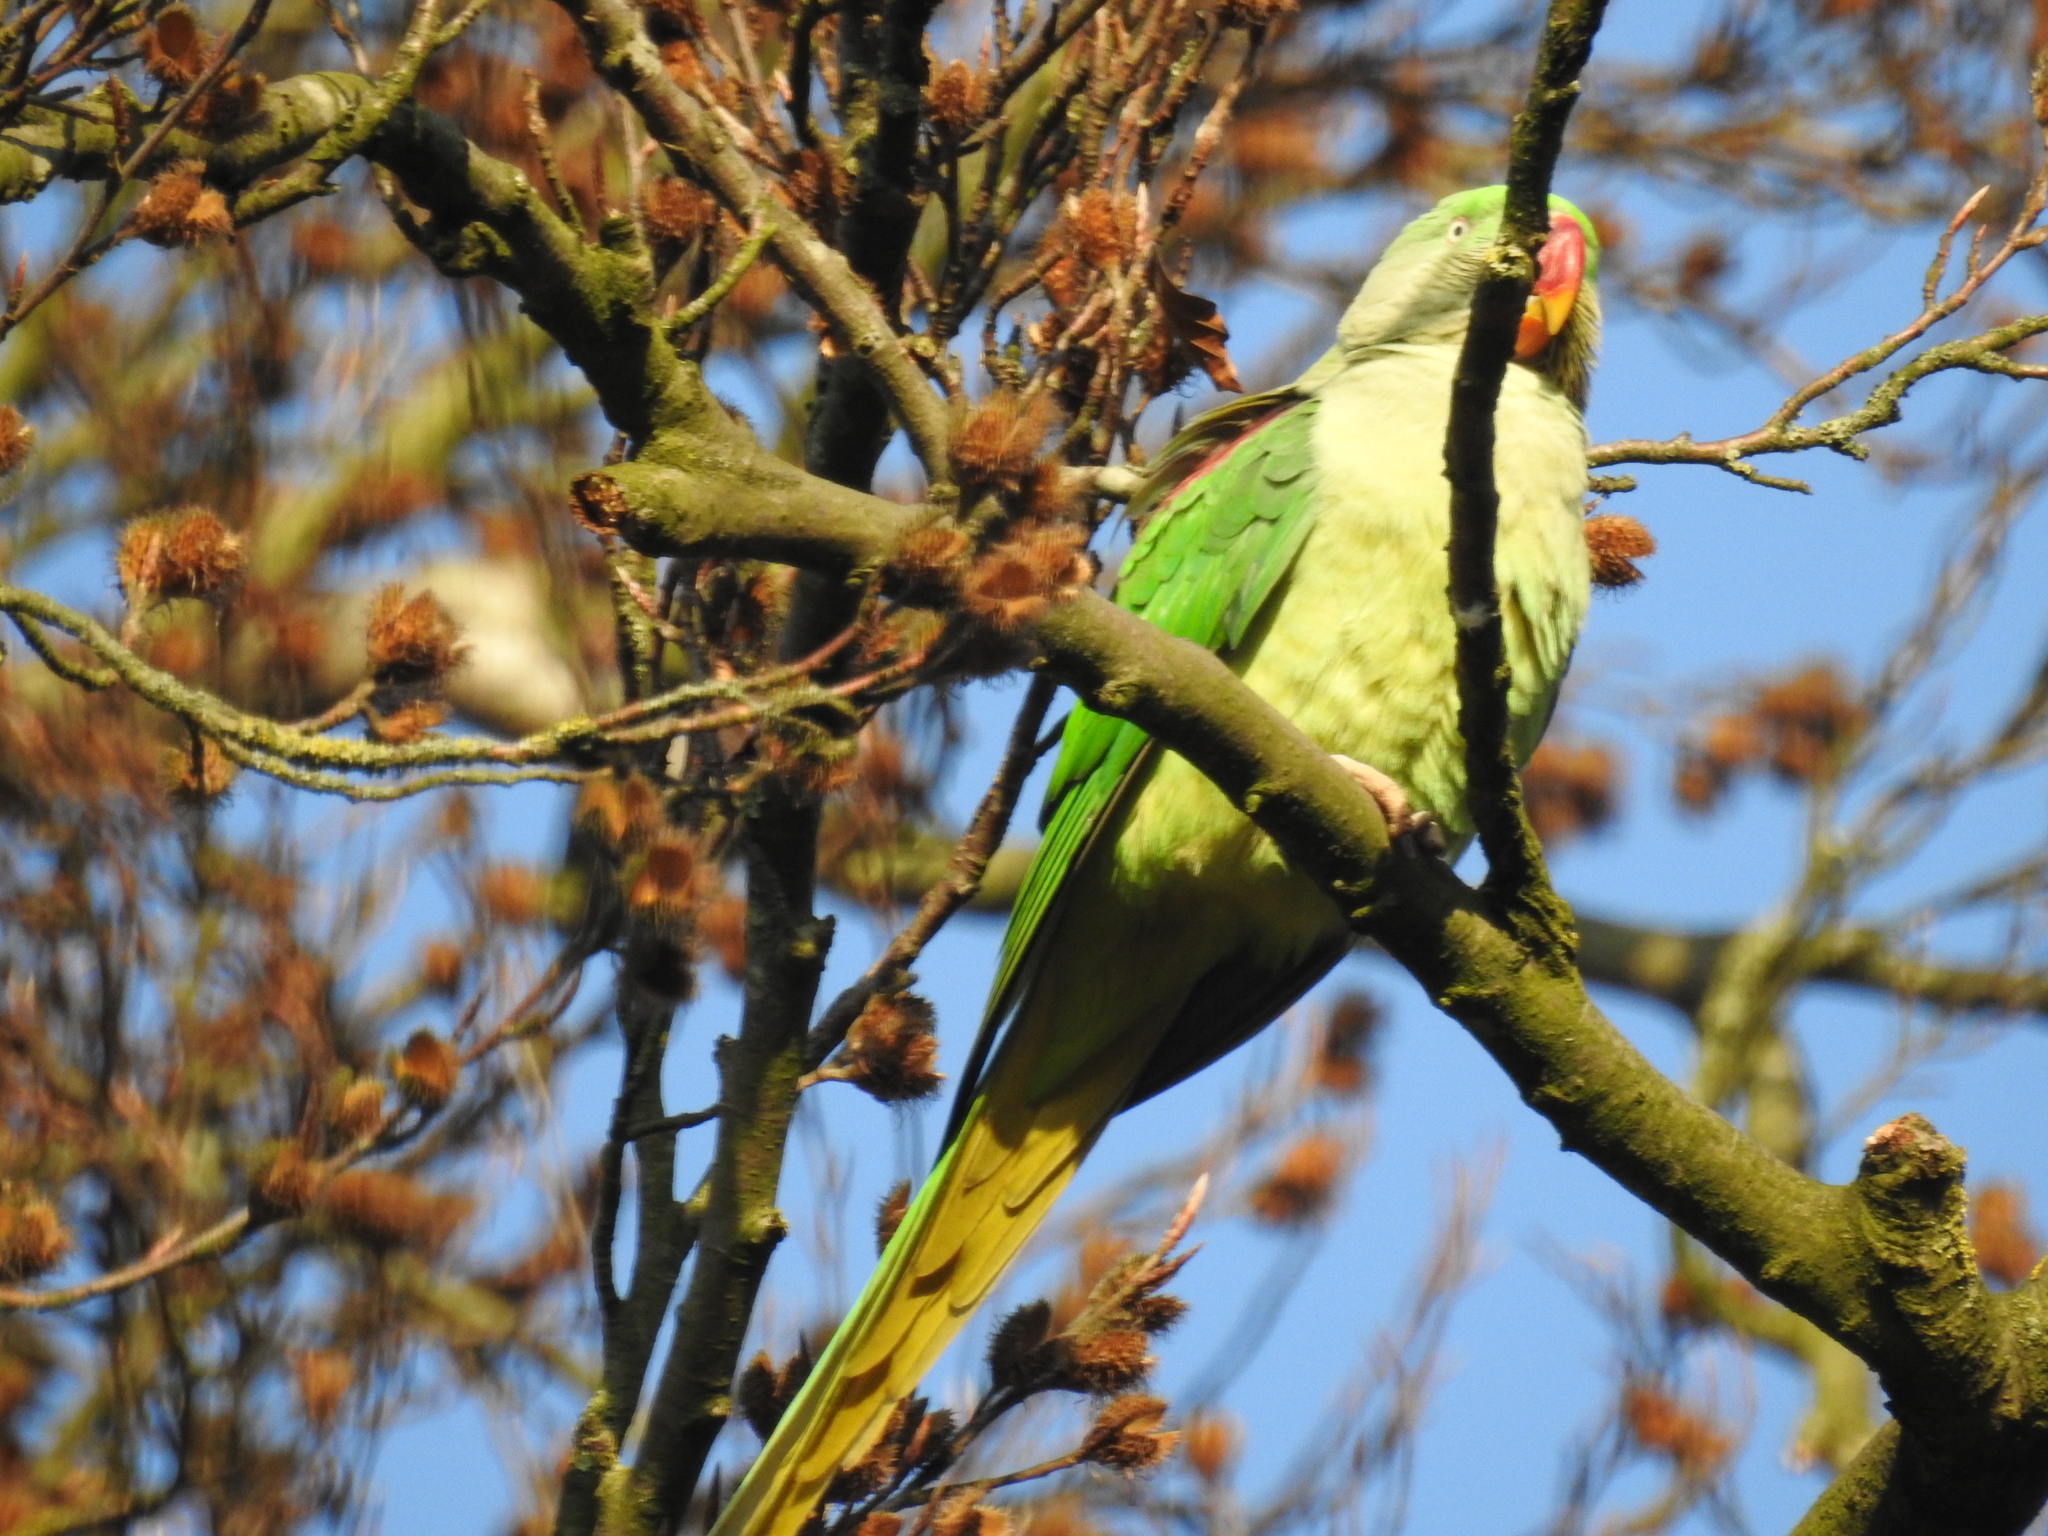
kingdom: Animalia
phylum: Chordata
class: Aves
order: Psittaciformes
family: Psittacidae
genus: Psittacula
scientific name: Psittacula eupatria
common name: Alexandrine parakeet
